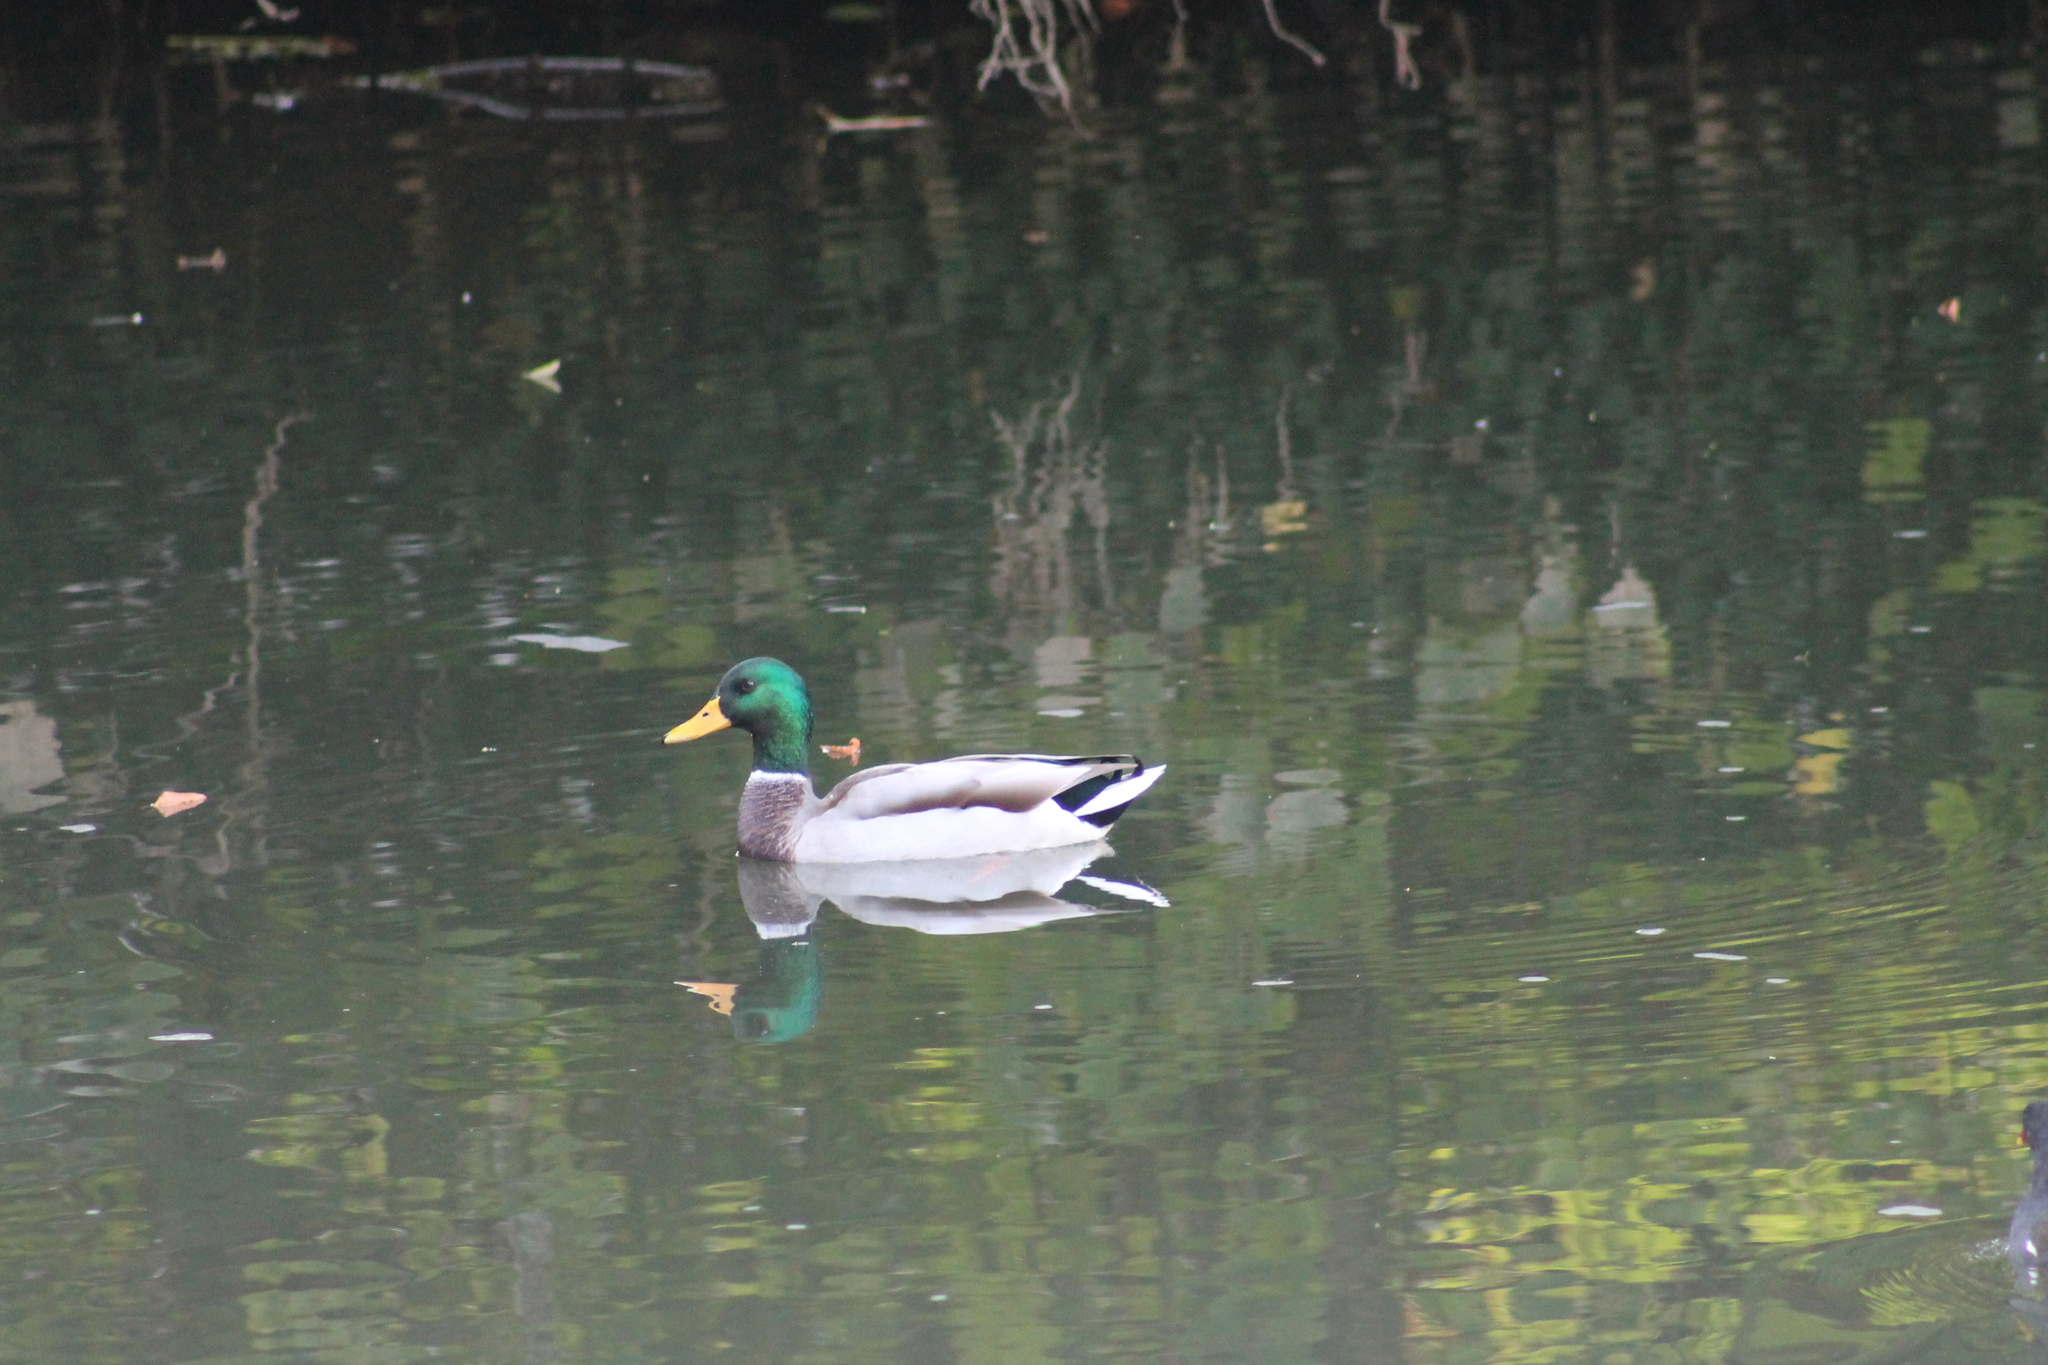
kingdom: Animalia
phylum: Chordata
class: Aves
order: Anseriformes
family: Anatidae
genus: Anas
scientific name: Anas platyrhynchos
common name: Mallard
